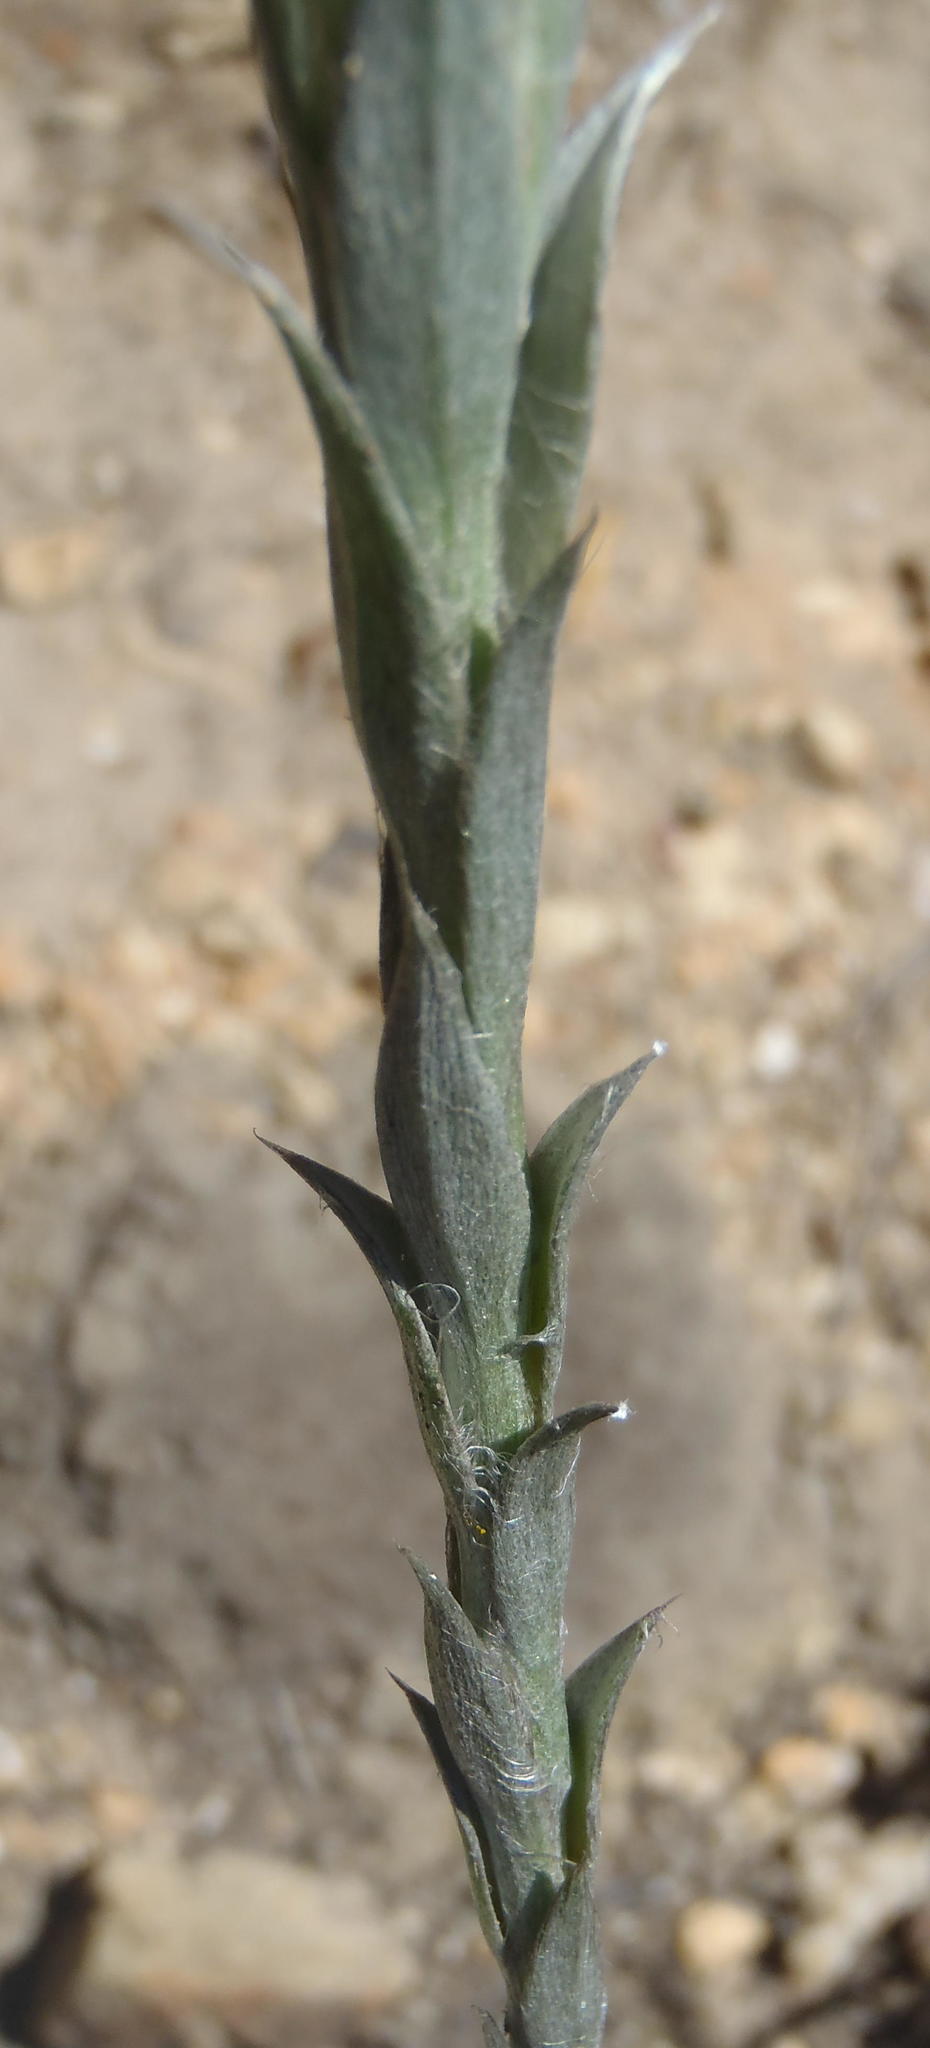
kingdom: Plantae
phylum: Tracheophyta
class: Magnoliopsida
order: Asterales
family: Asteraceae
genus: Achyranthemum
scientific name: Achyranthemum paniculatum
